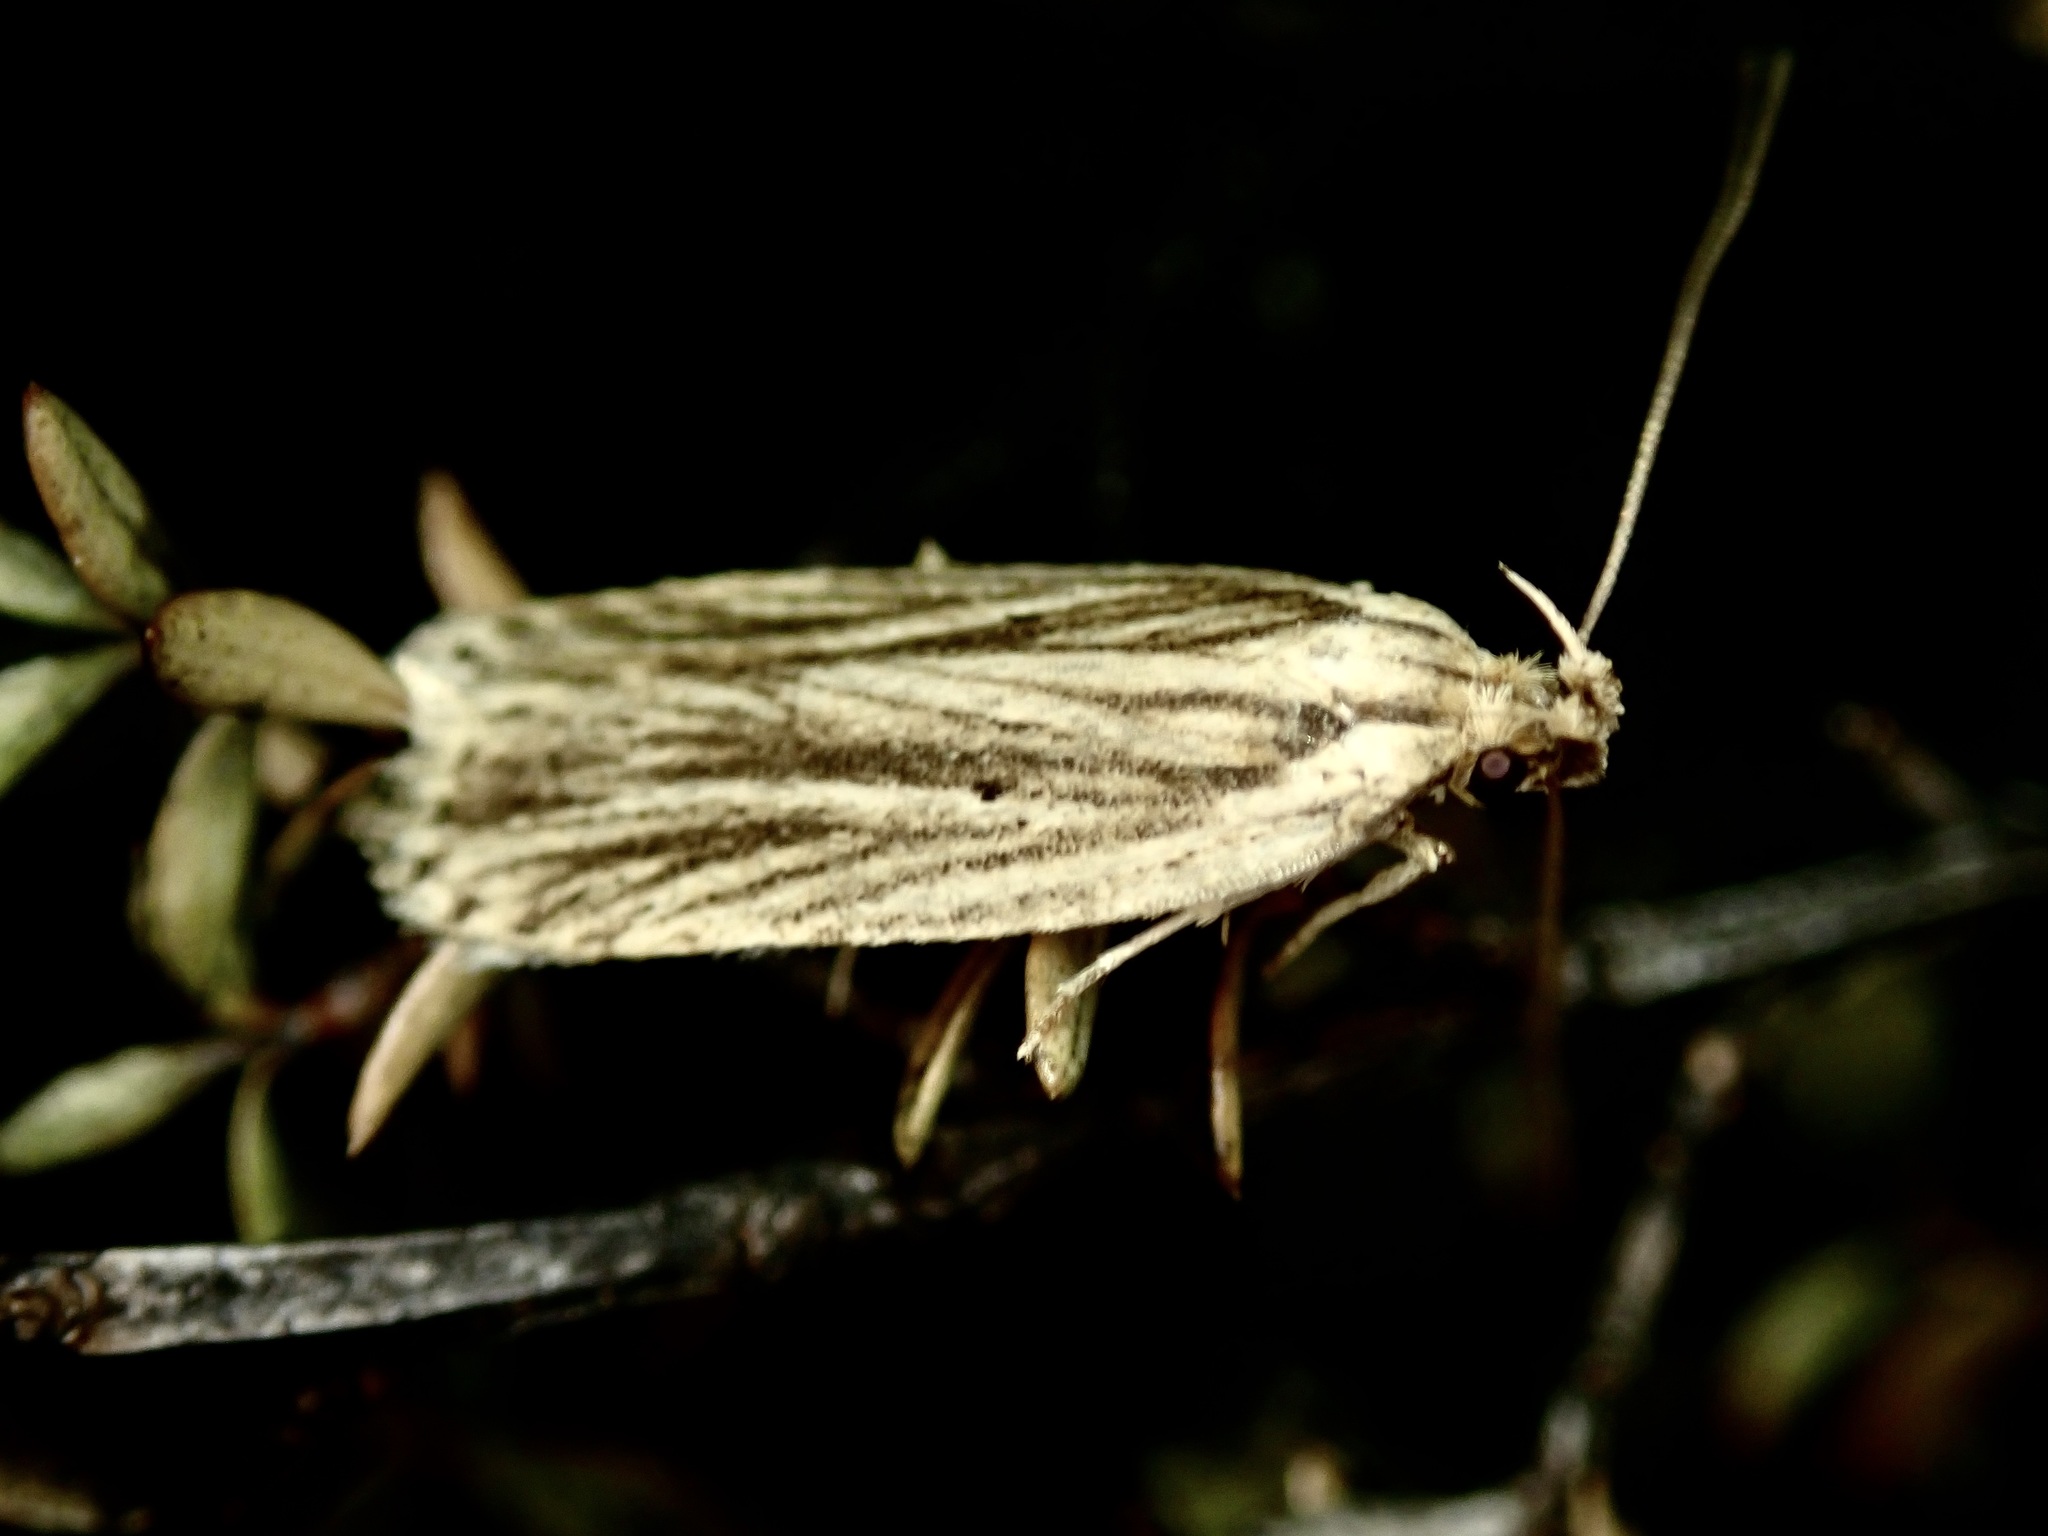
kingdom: Animalia
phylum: Arthropoda
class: Insecta
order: Lepidoptera
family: Depressariidae
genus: Agonopterix
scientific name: Agonopterix
